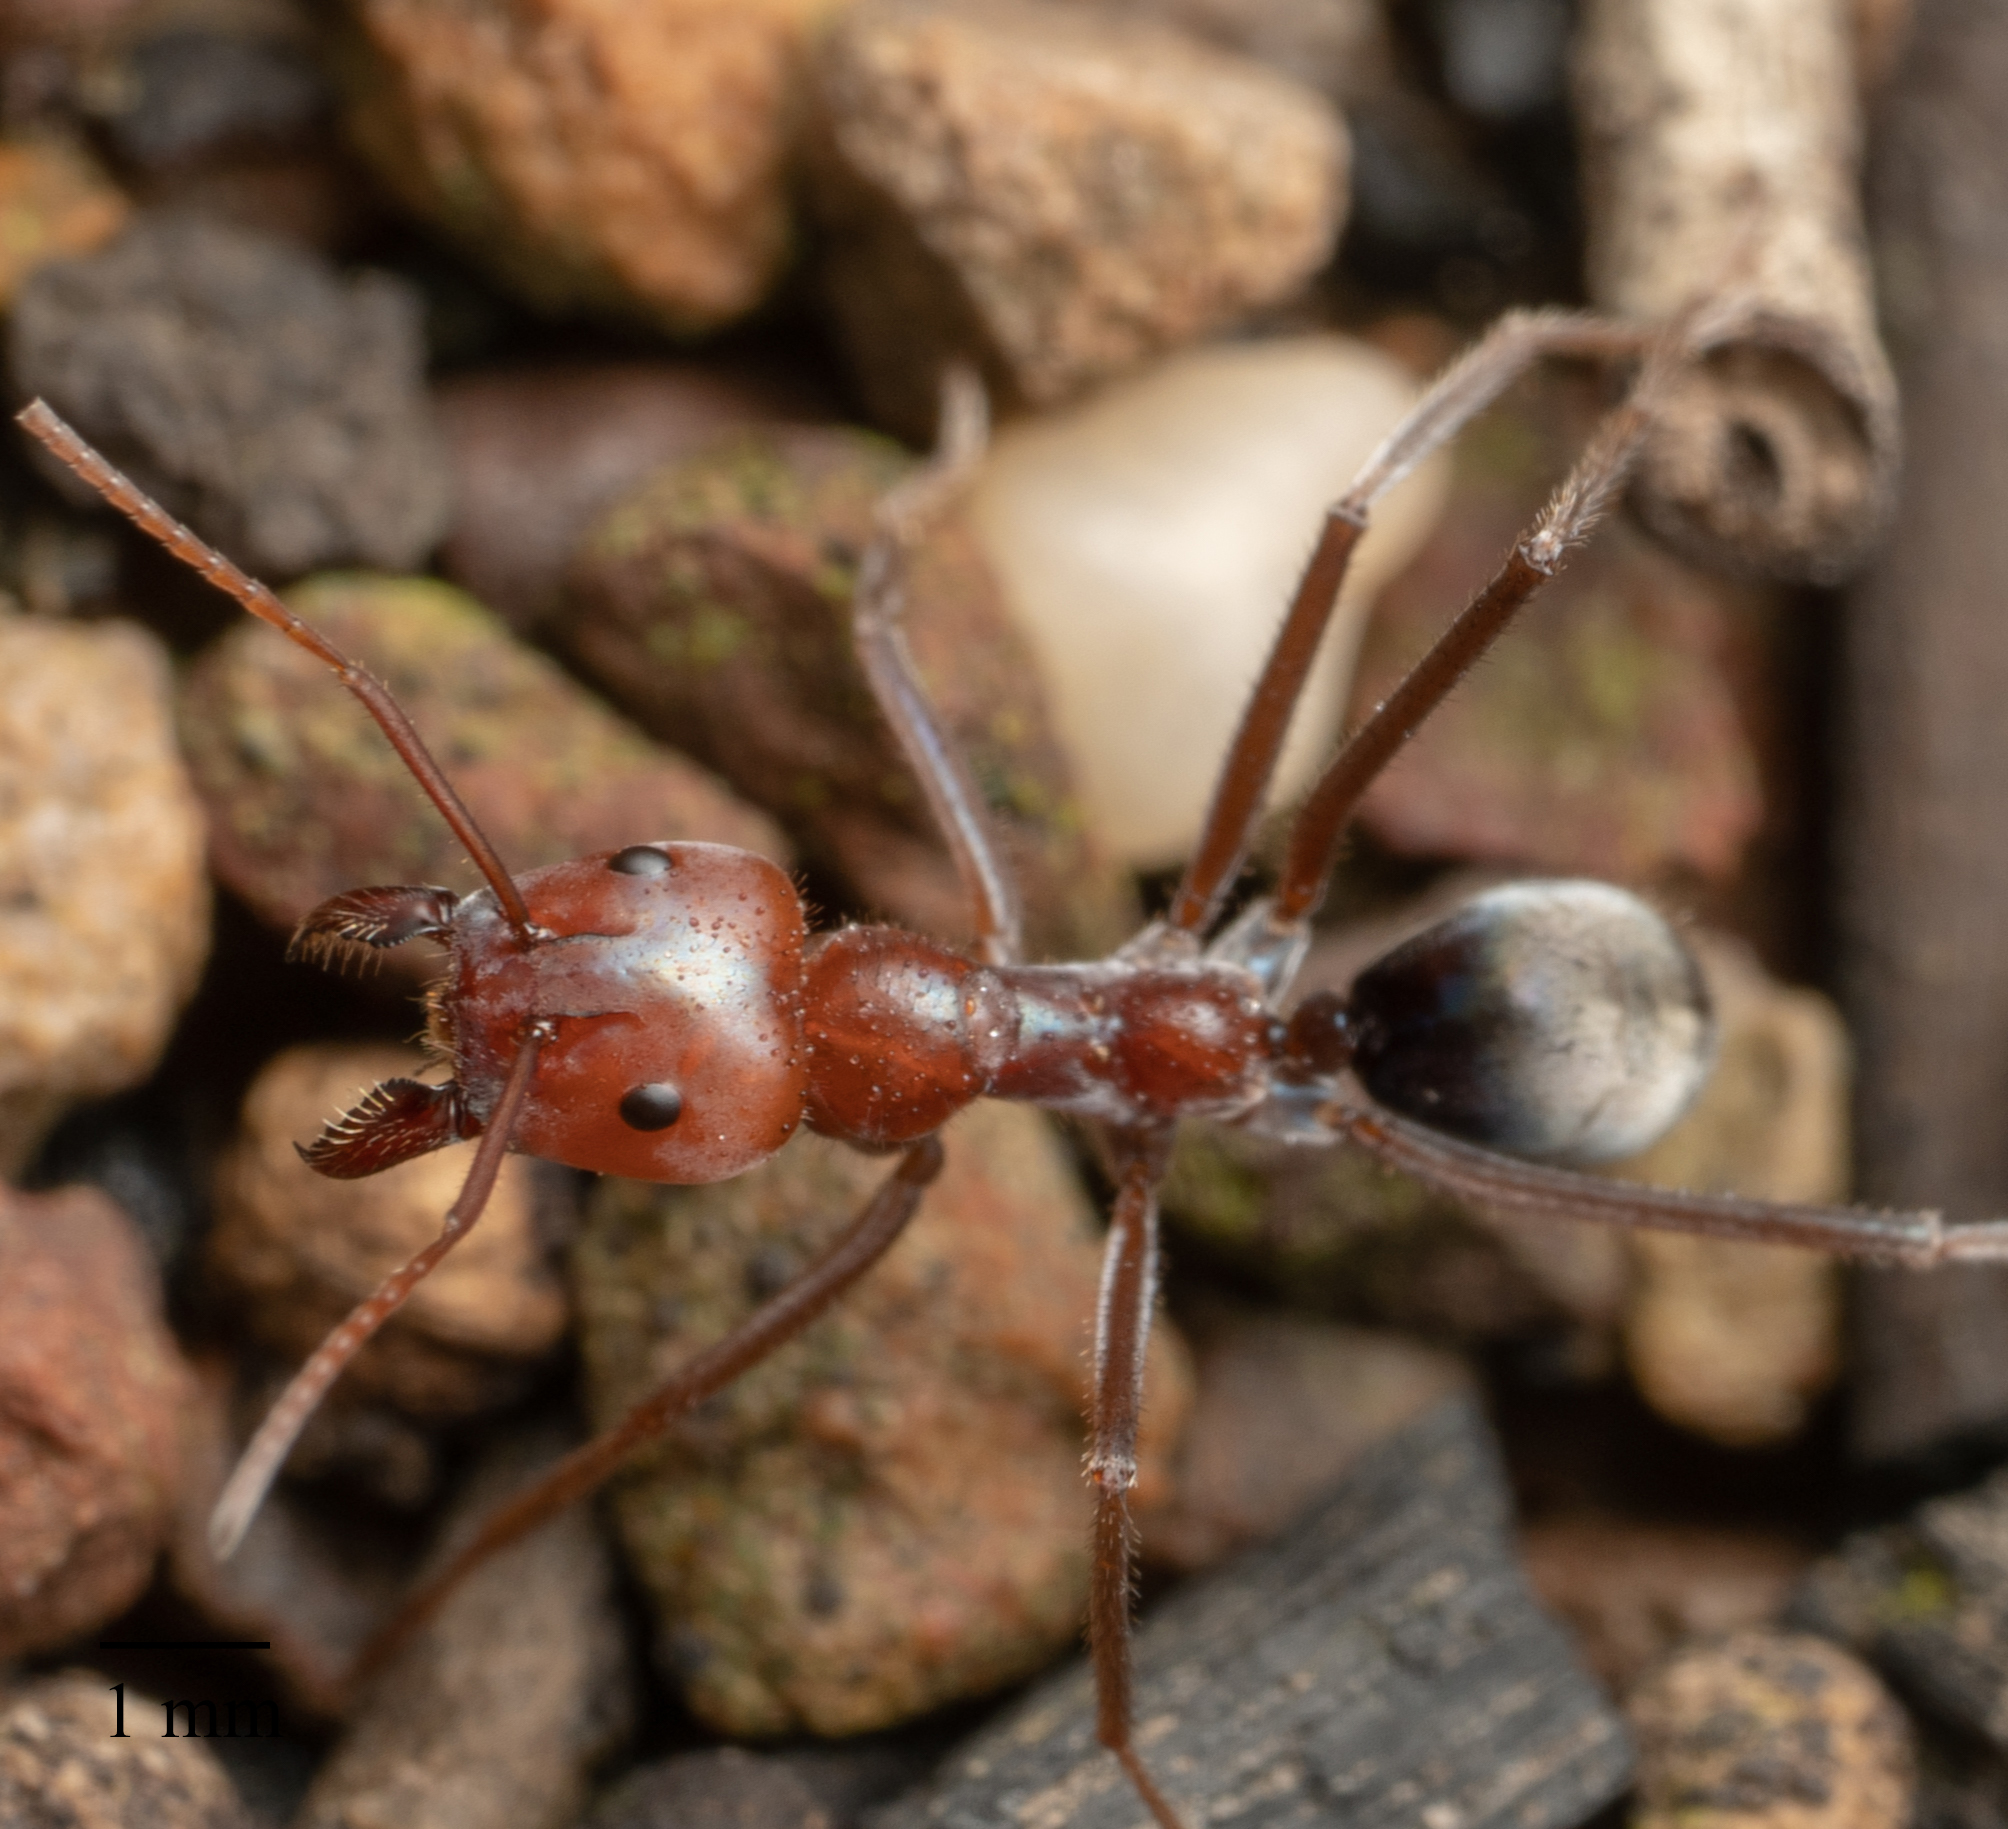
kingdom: Animalia
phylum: Arthropoda
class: Insecta
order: Hymenoptera
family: Formicidae
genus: Iridomyrmex
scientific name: Iridomyrmex purpureus
